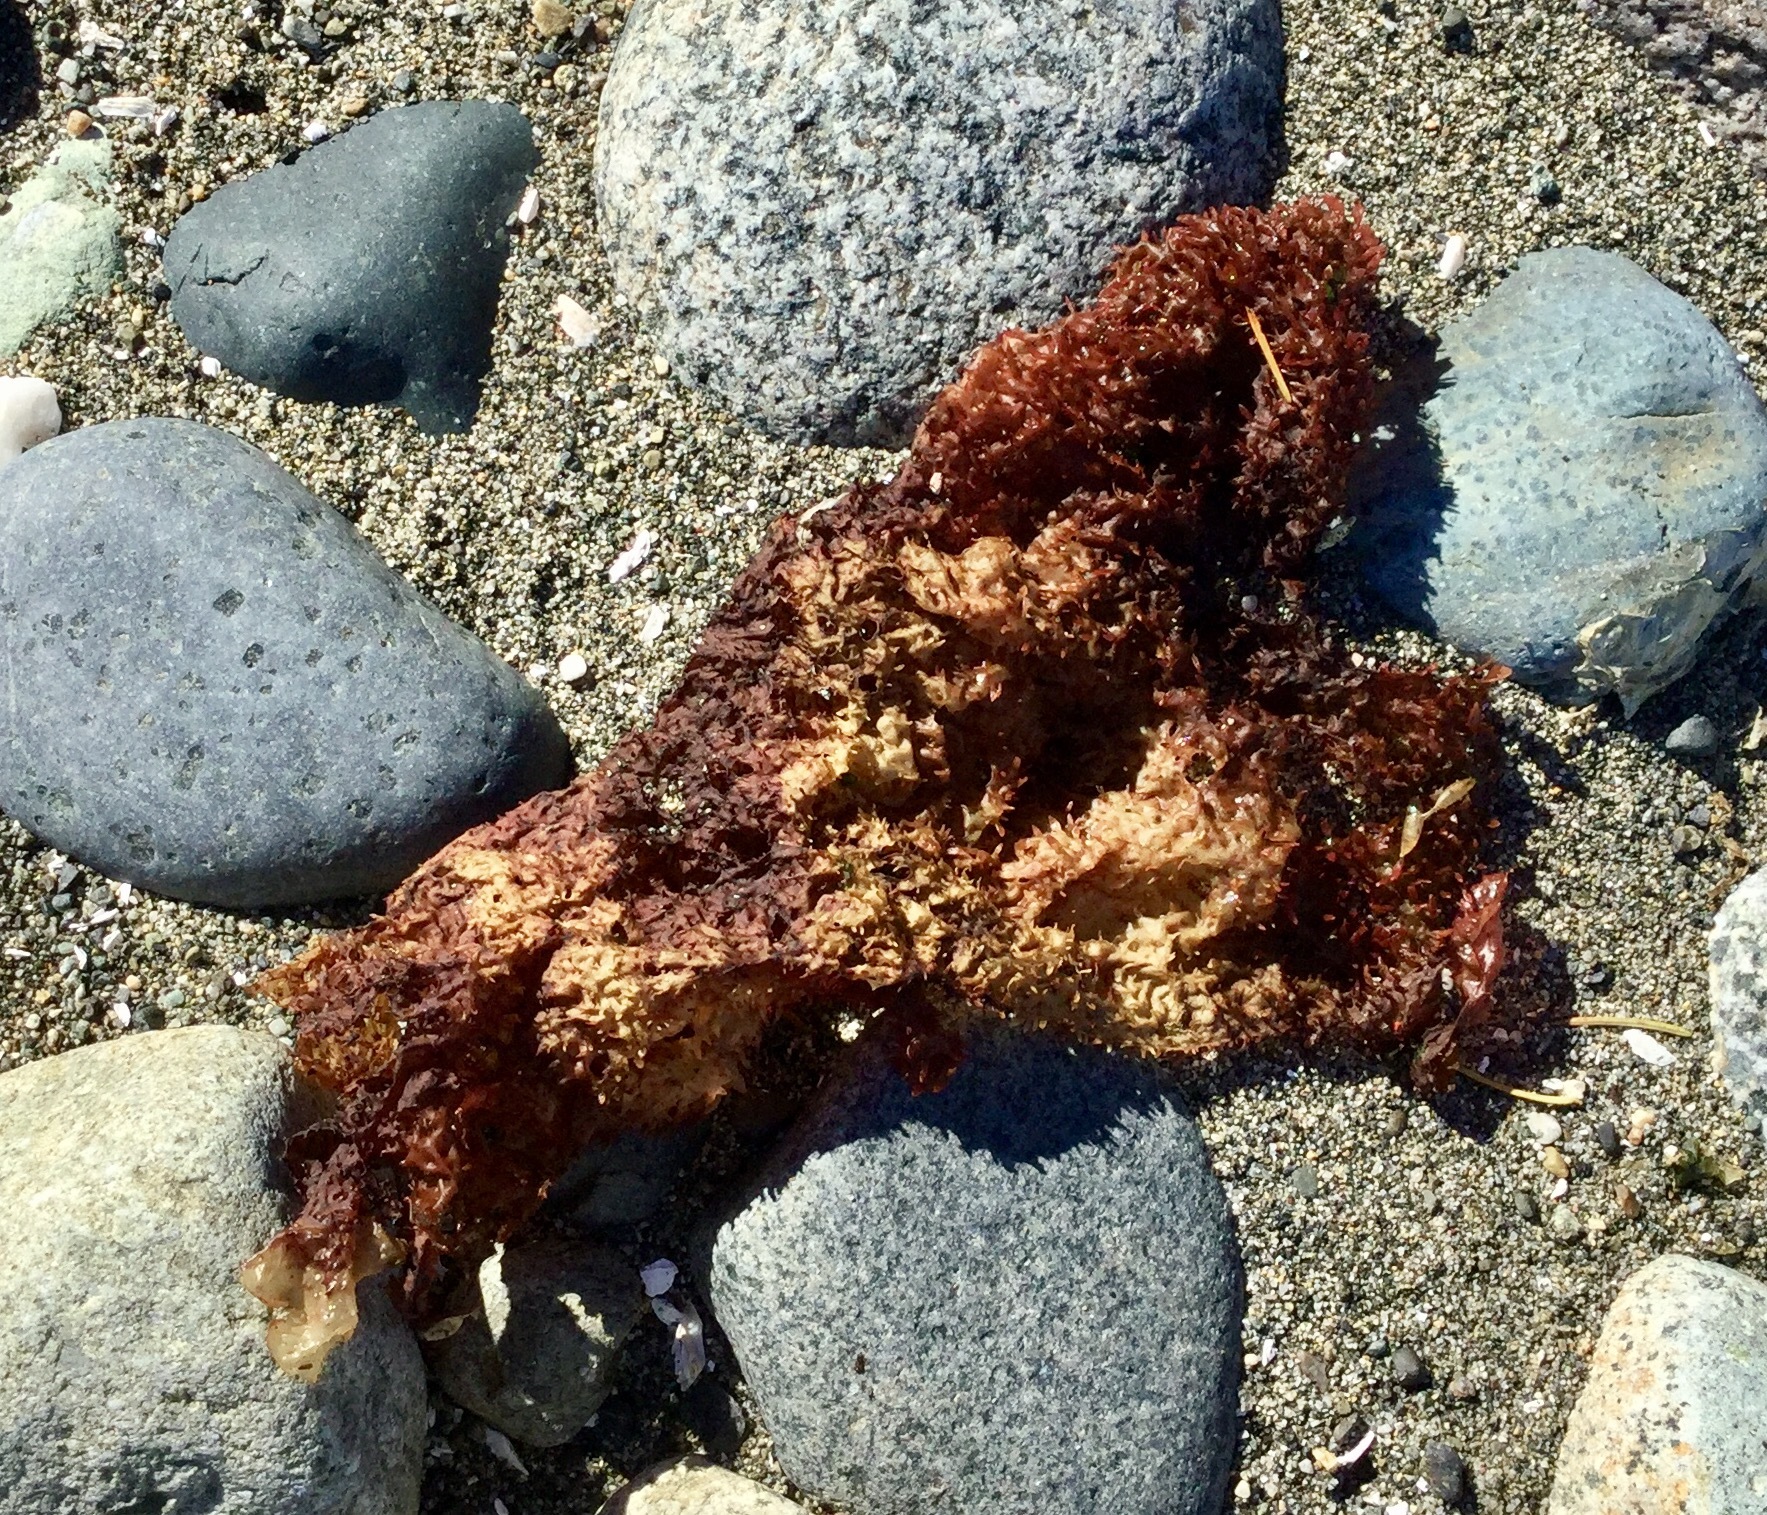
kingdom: Plantae
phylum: Rhodophyta
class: Florideophyceae
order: Gigartinales
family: Gigartinaceae
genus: Chondracanthus
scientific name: Chondracanthus exasperatus
